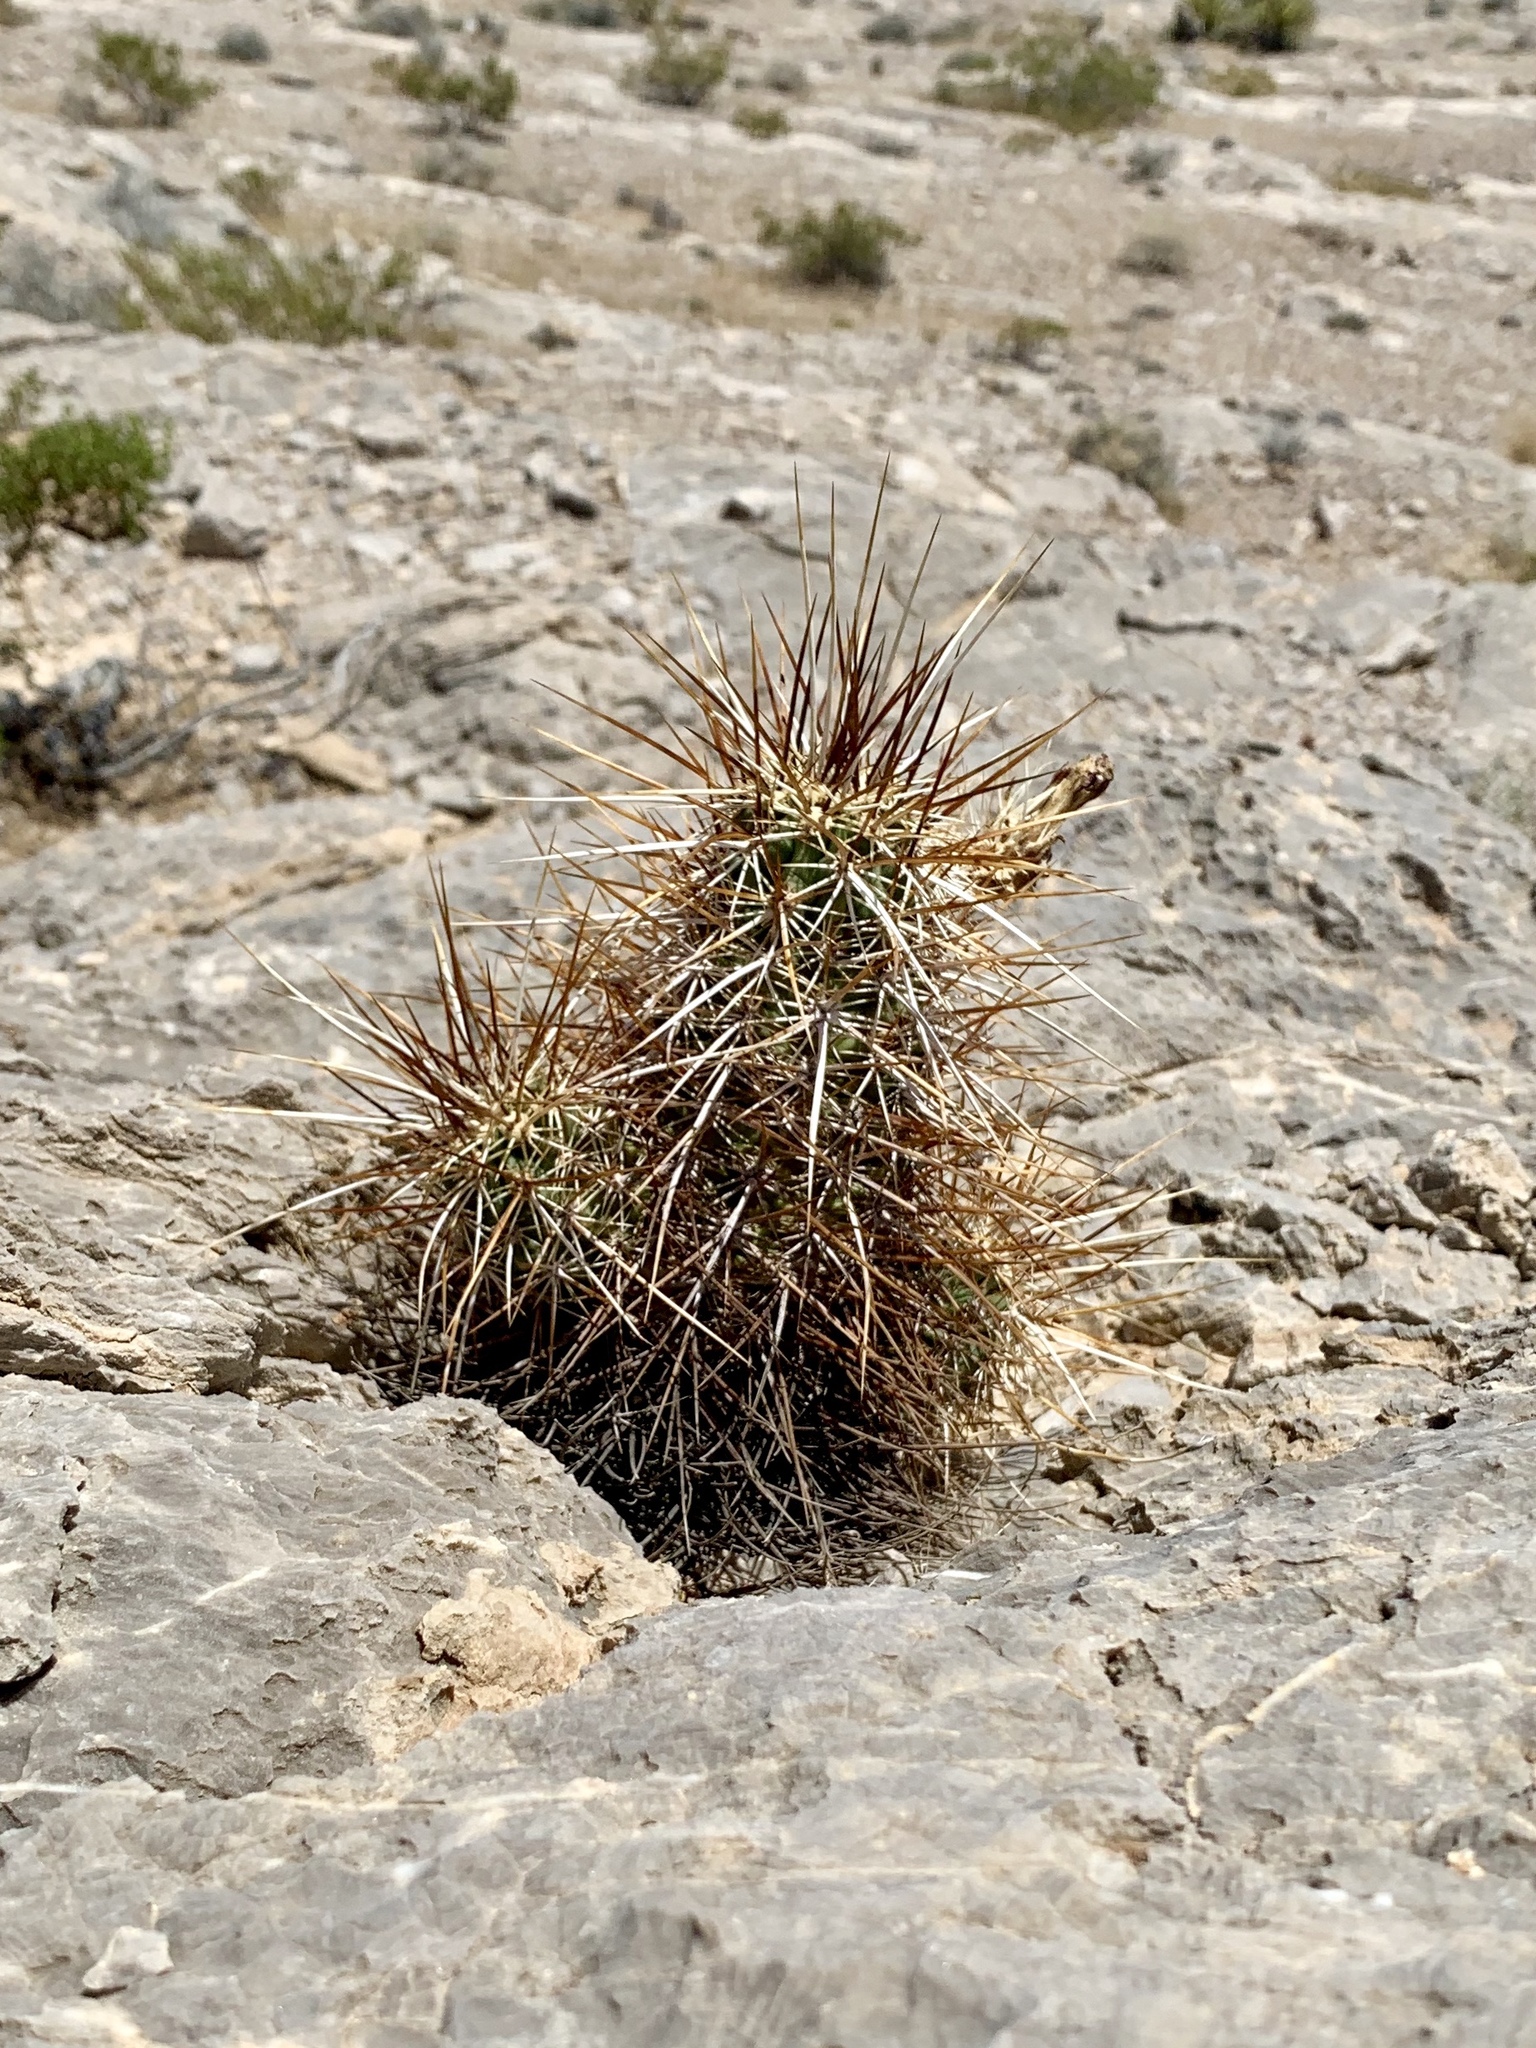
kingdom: Plantae
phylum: Tracheophyta
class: Magnoliopsida
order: Caryophyllales
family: Cactaceae
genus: Echinocereus
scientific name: Echinocereus engelmannii
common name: Engelmann's hedgehog cactus
